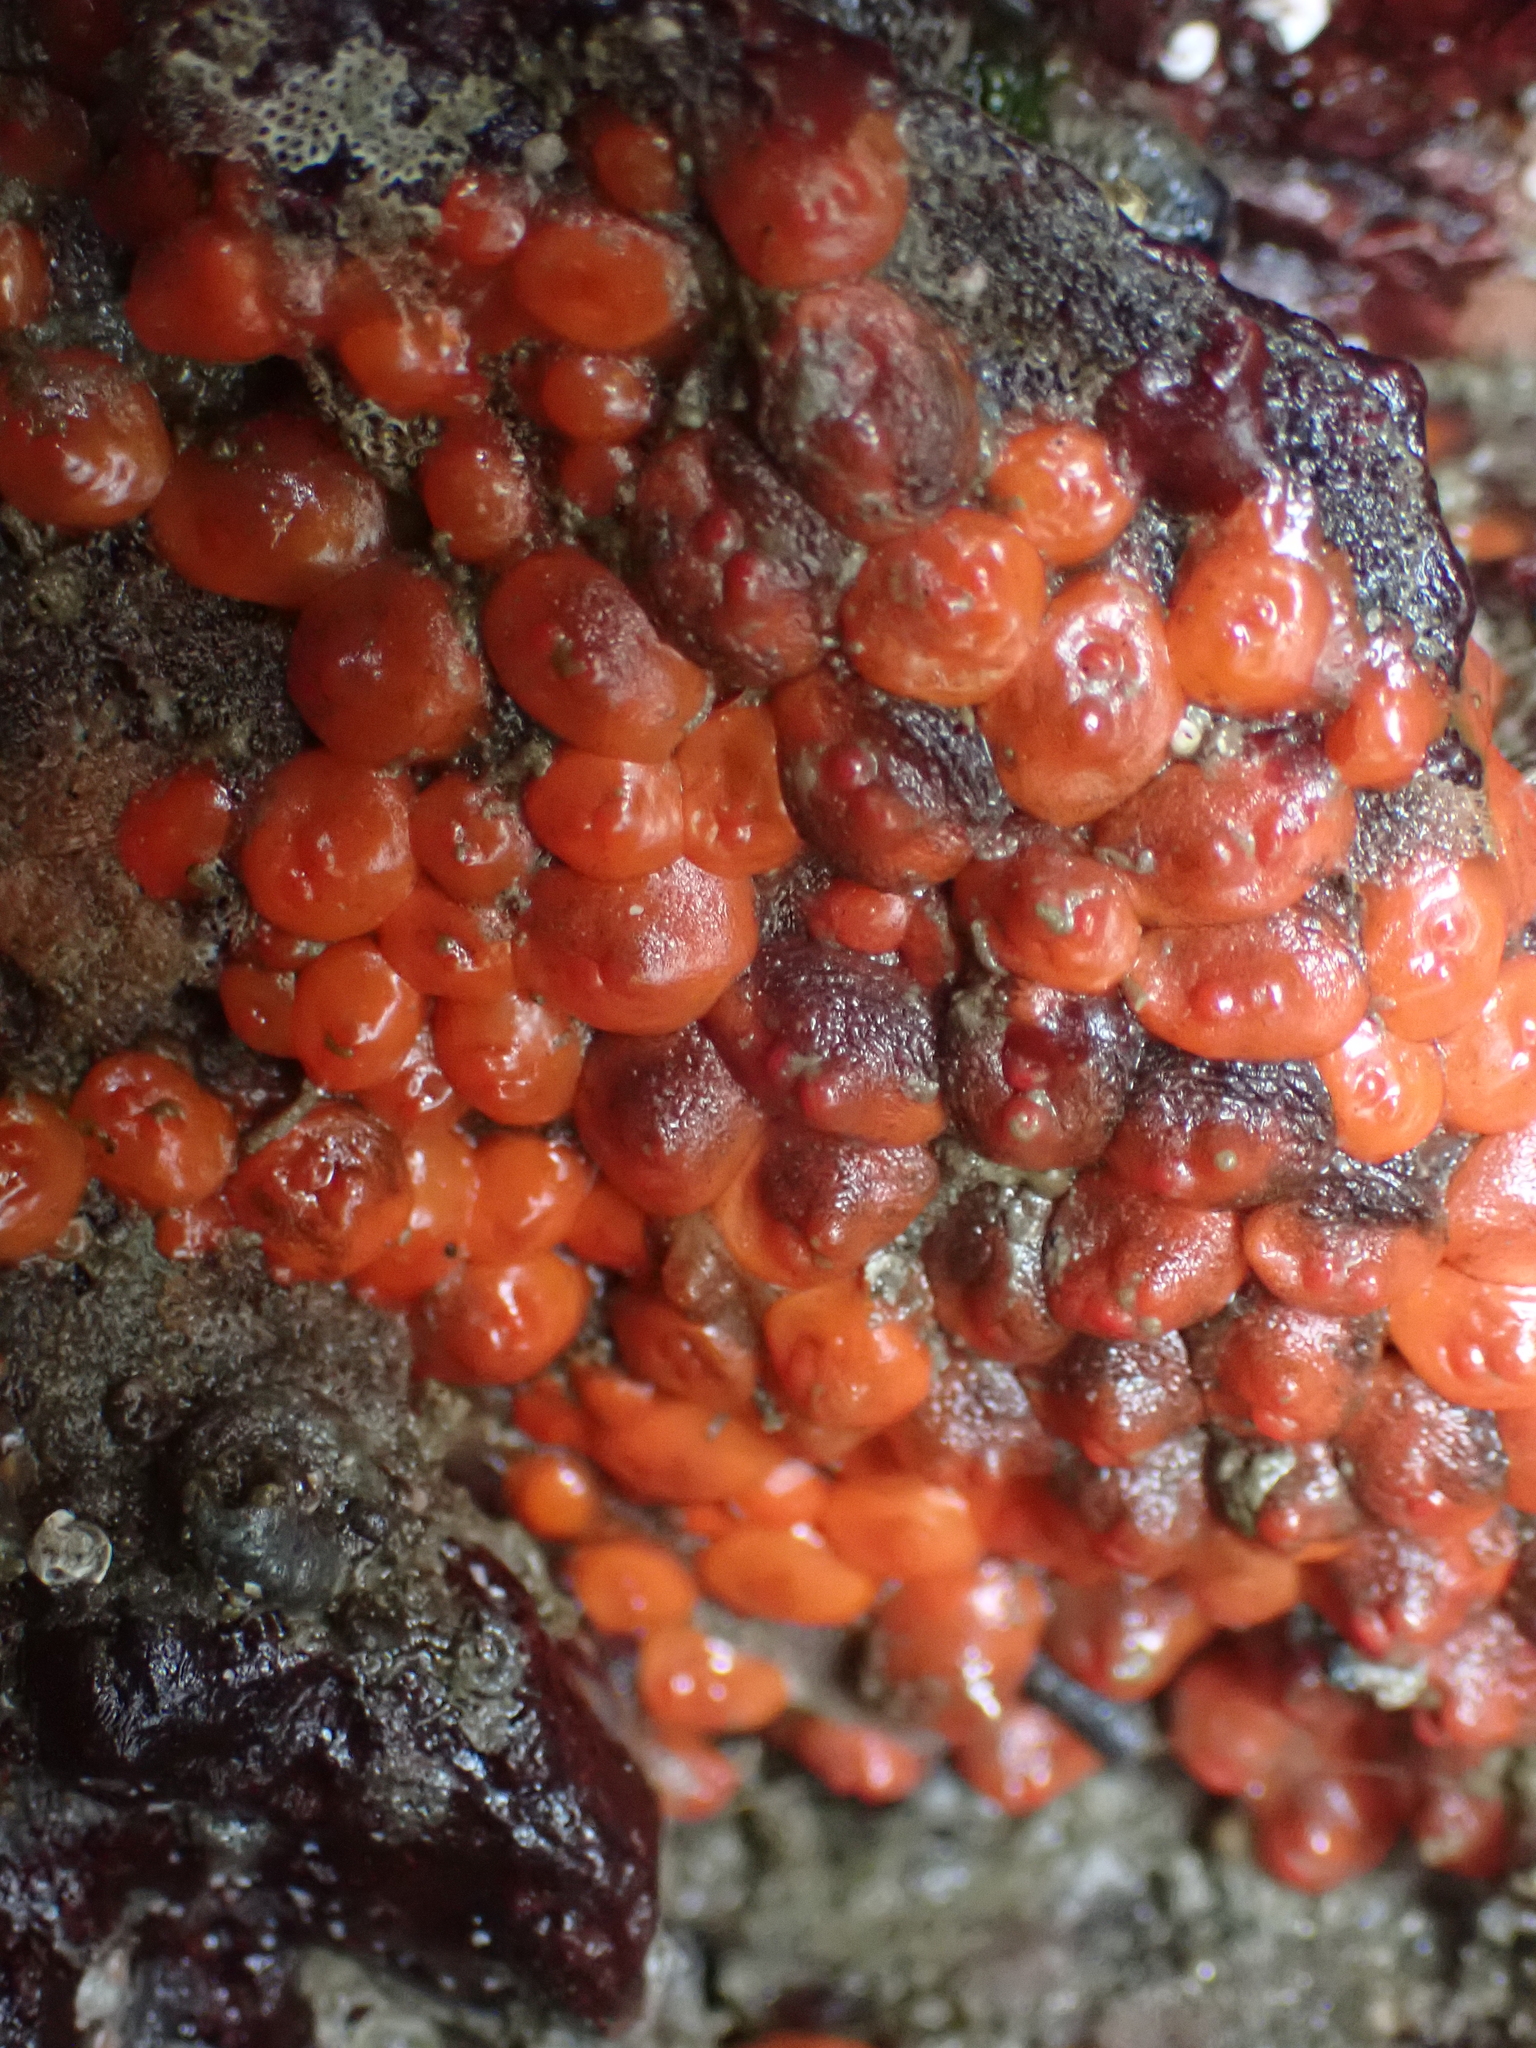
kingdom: Animalia
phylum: Chordata
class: Ascidiacea
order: Stolidobranchia
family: Styelidae
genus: Metandrocarpa
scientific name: Metandrocarpa taylori
